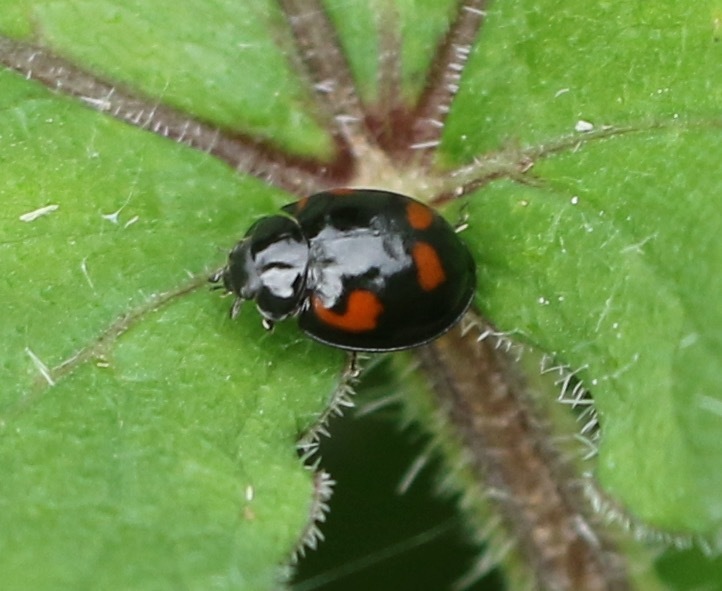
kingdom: Animalia
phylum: Arthropoda
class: Insecta
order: Coleoptera
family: Coccinellidae
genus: Brumus
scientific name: Brumus quadripustulatus
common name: Ladybird beetle
